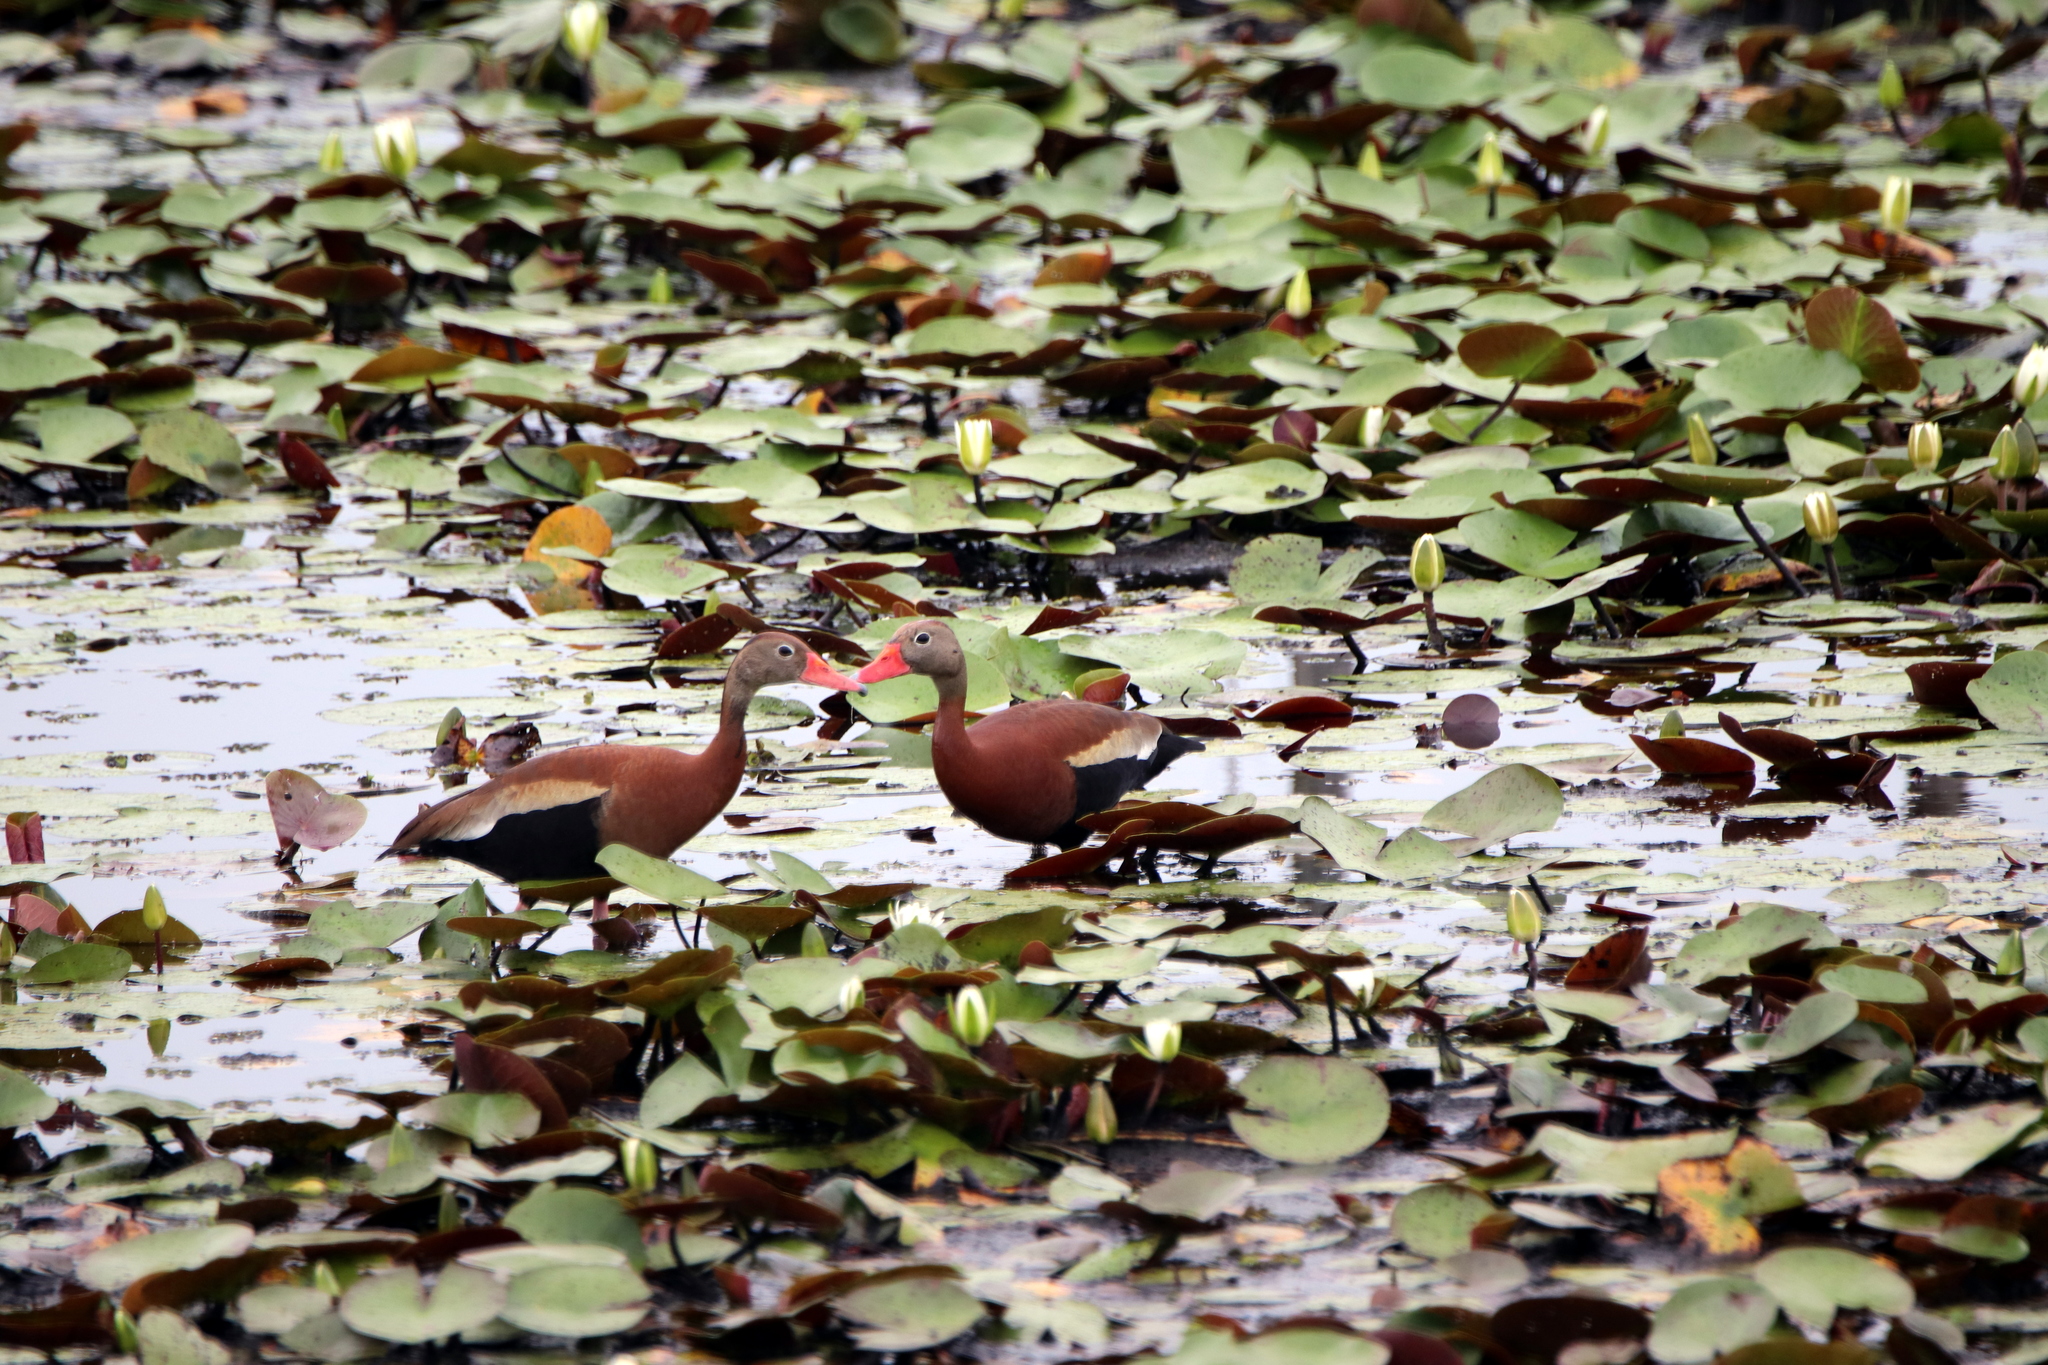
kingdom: Animalia
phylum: Chordata
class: Aves
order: Anseriformes
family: Anatidae
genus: Dendrocygna
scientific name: Dendrocygna autumnalis
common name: Black-bellied whistling duck
